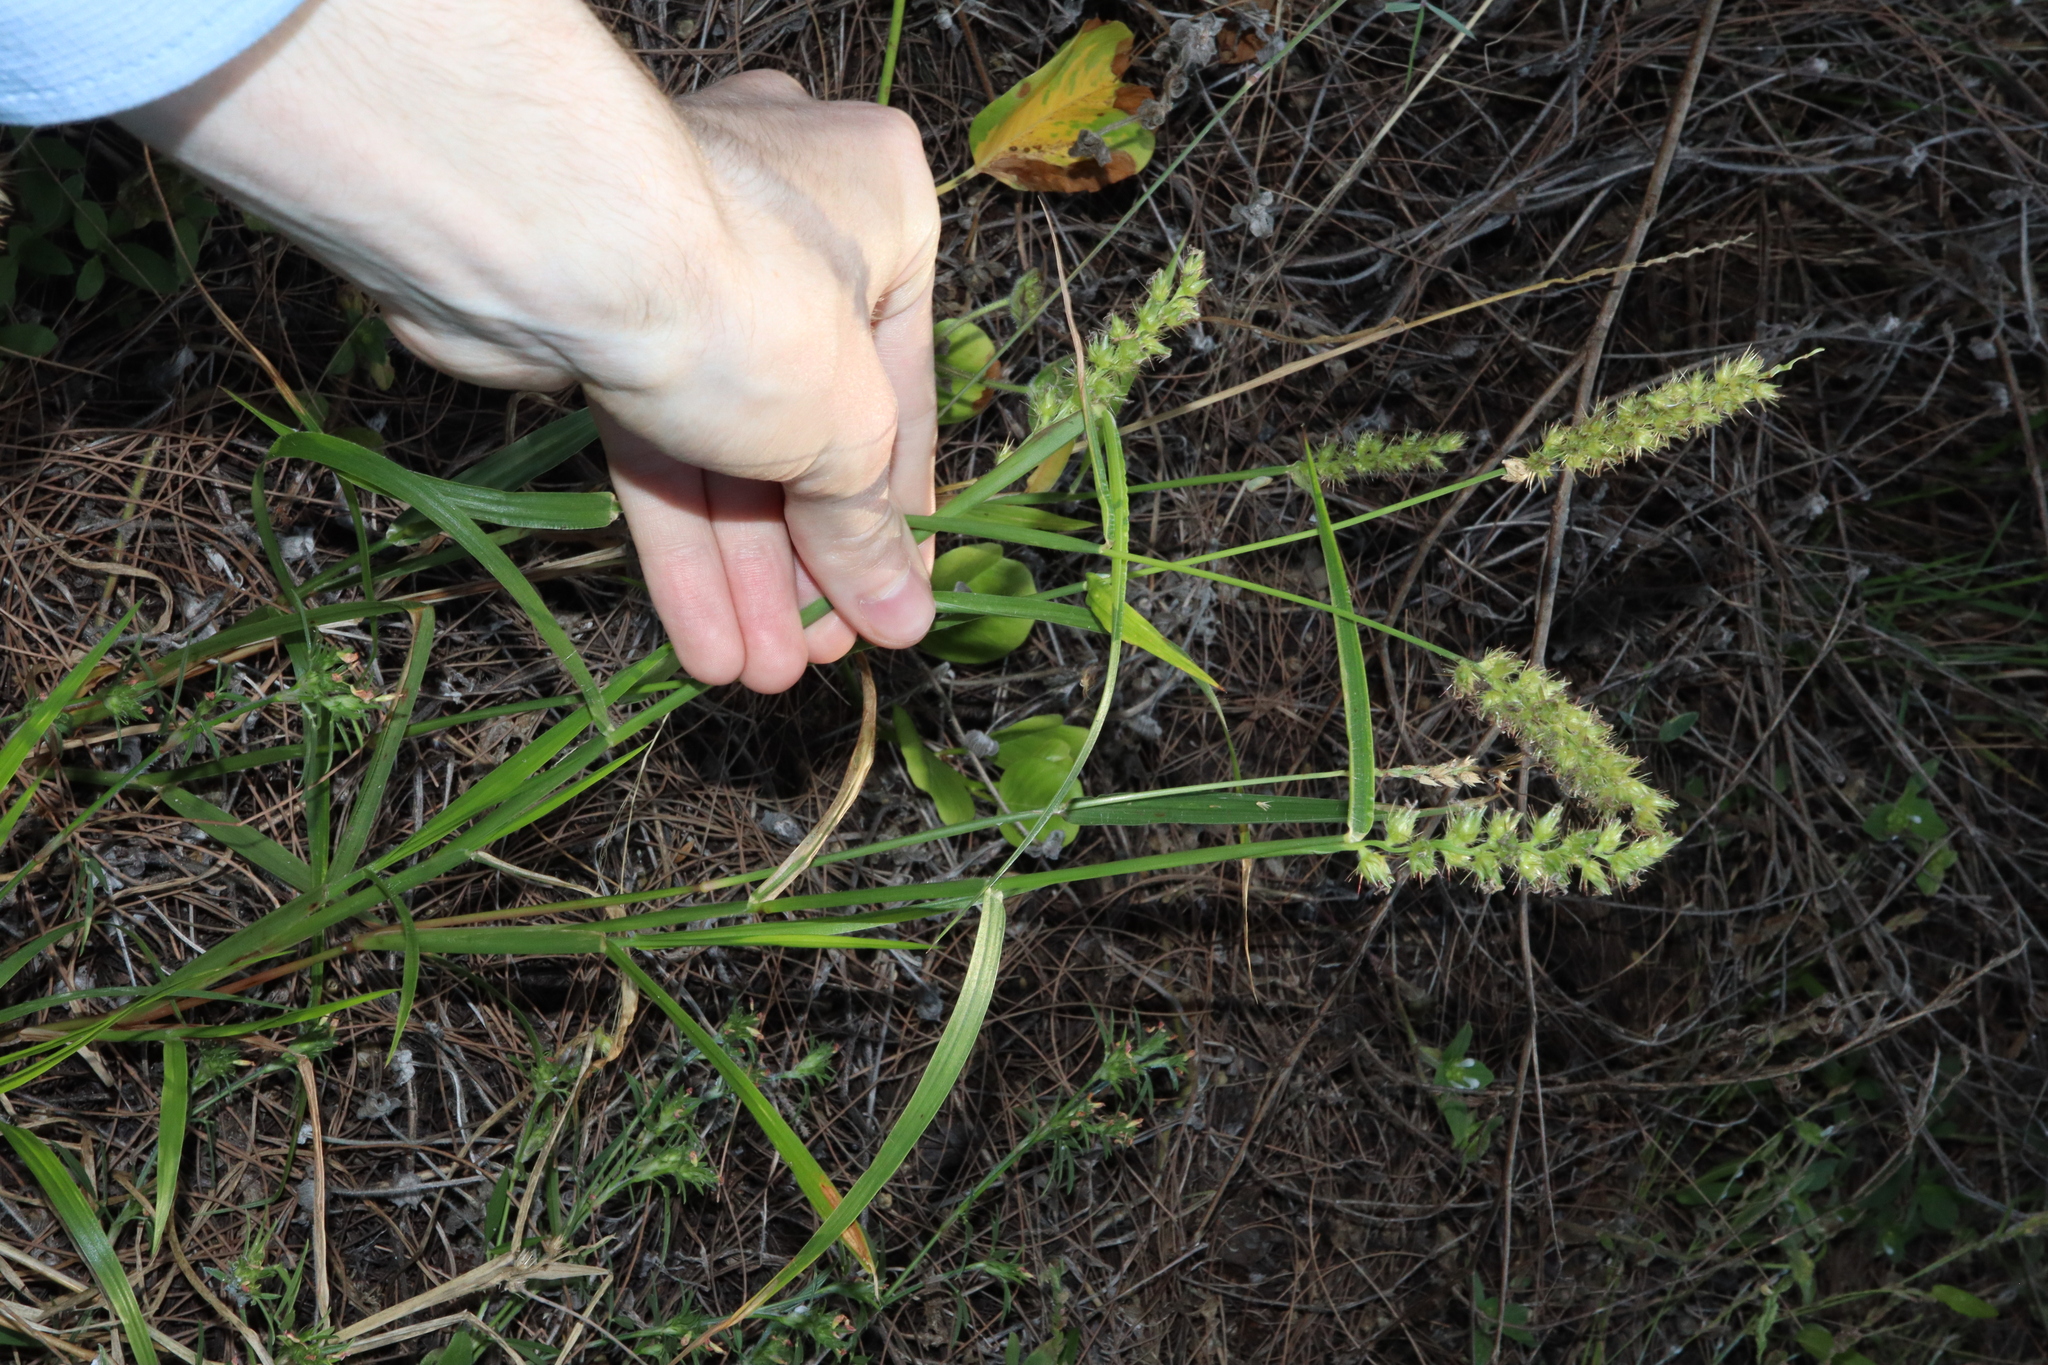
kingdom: Plantae
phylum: Tracheophyta
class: Liliopsida
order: Poales
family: Poaceae
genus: Cenchrus
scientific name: Cenchrus echinatus
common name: Southern sandbur
